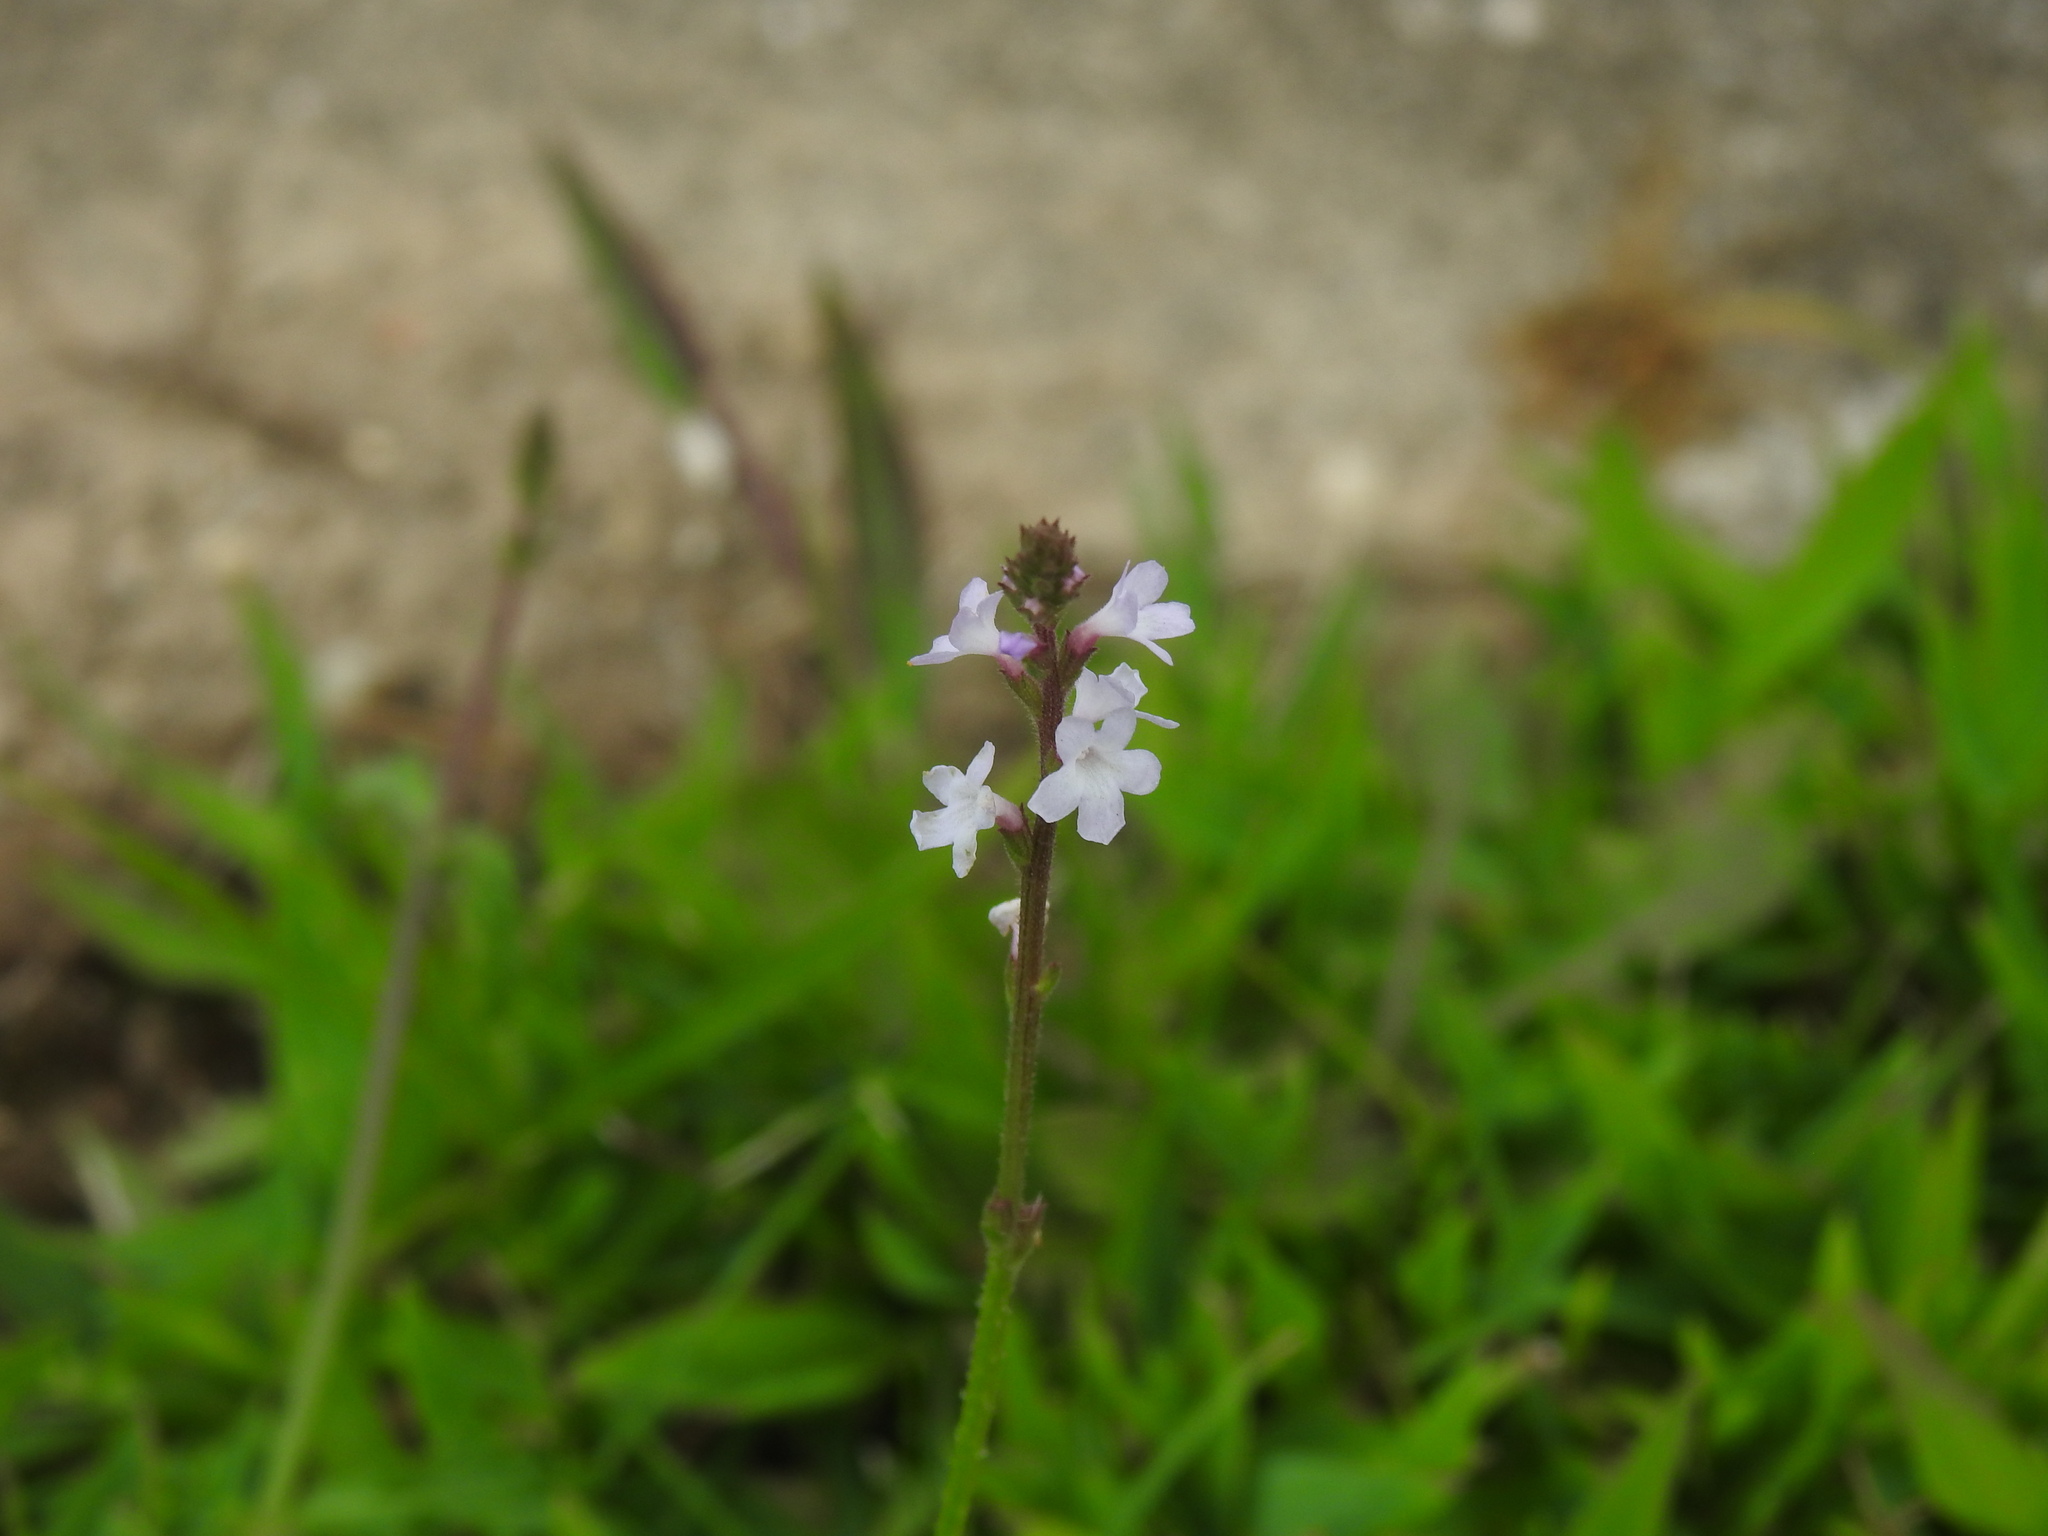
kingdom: Plantae
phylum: Tracheophyta
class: Magnoliopsida
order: Lamiales
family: Verbenaceae
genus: Verbena
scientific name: Verbena officinalis
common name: Vervain
